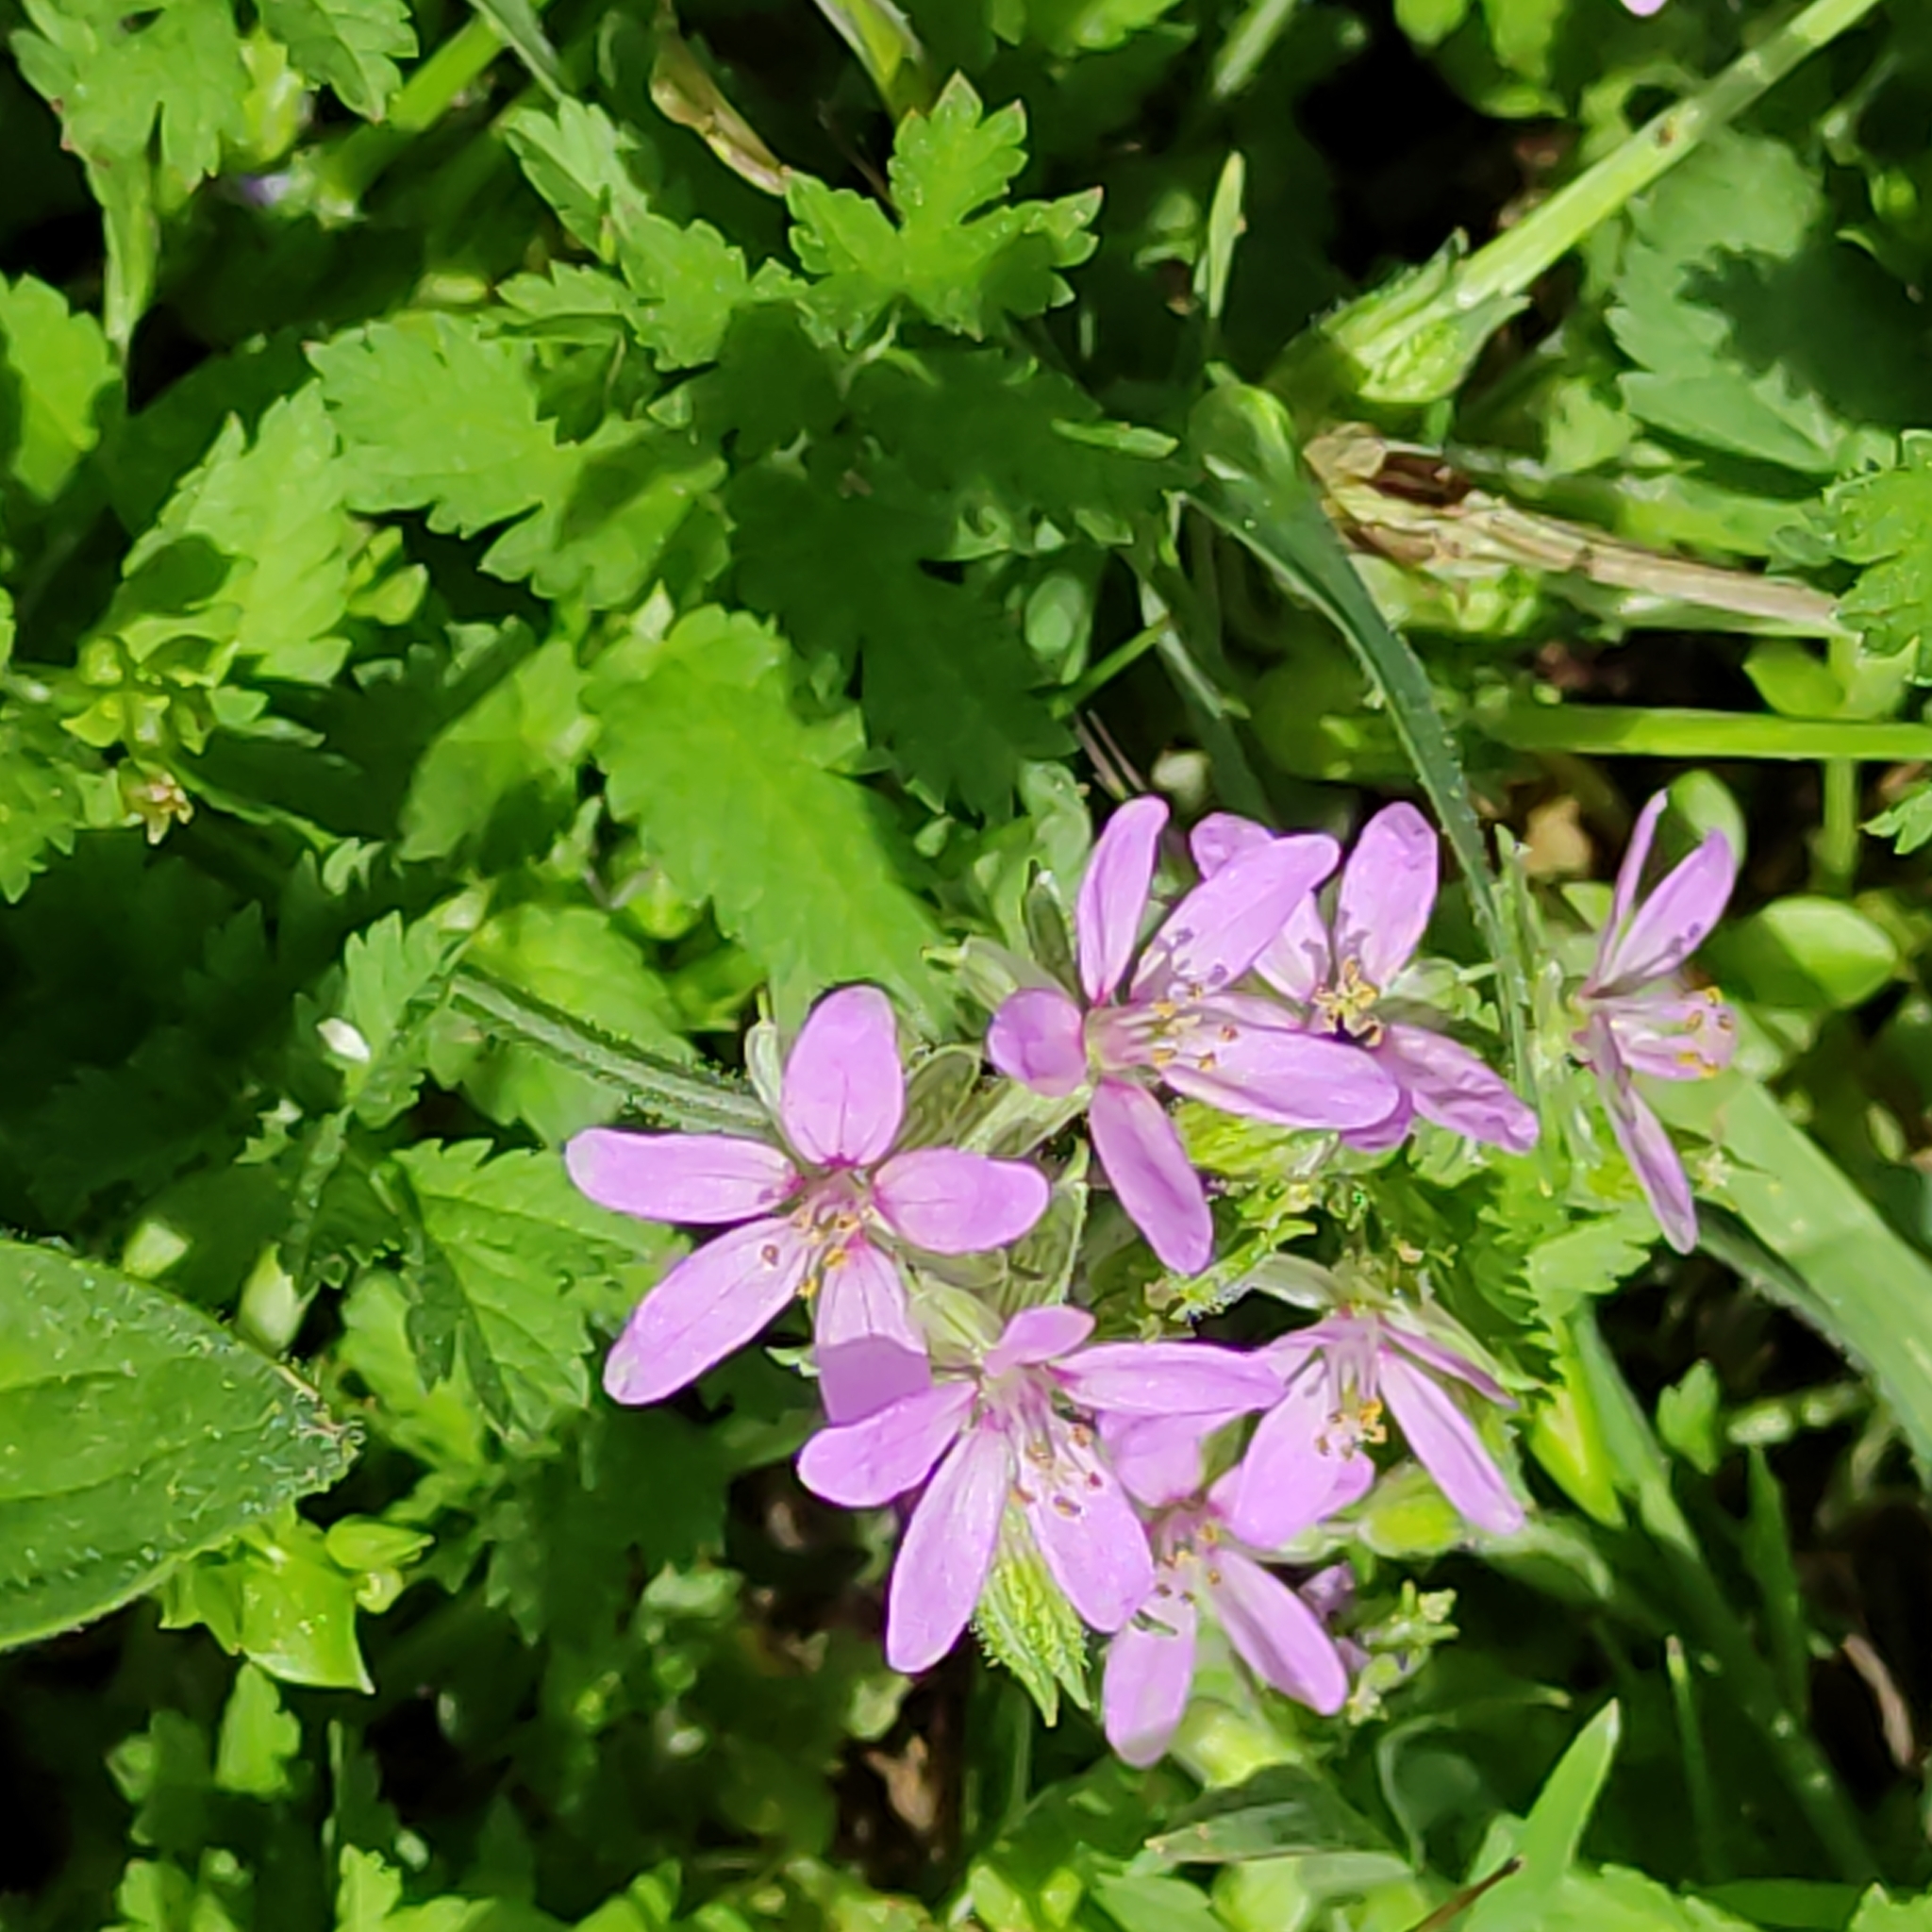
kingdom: Plantae
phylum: Tracheophyta
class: Magnoliopsida
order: Geraniales
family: Geraniaceae
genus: Erodium
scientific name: Erodium moschatum
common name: Musk stork's-bill
